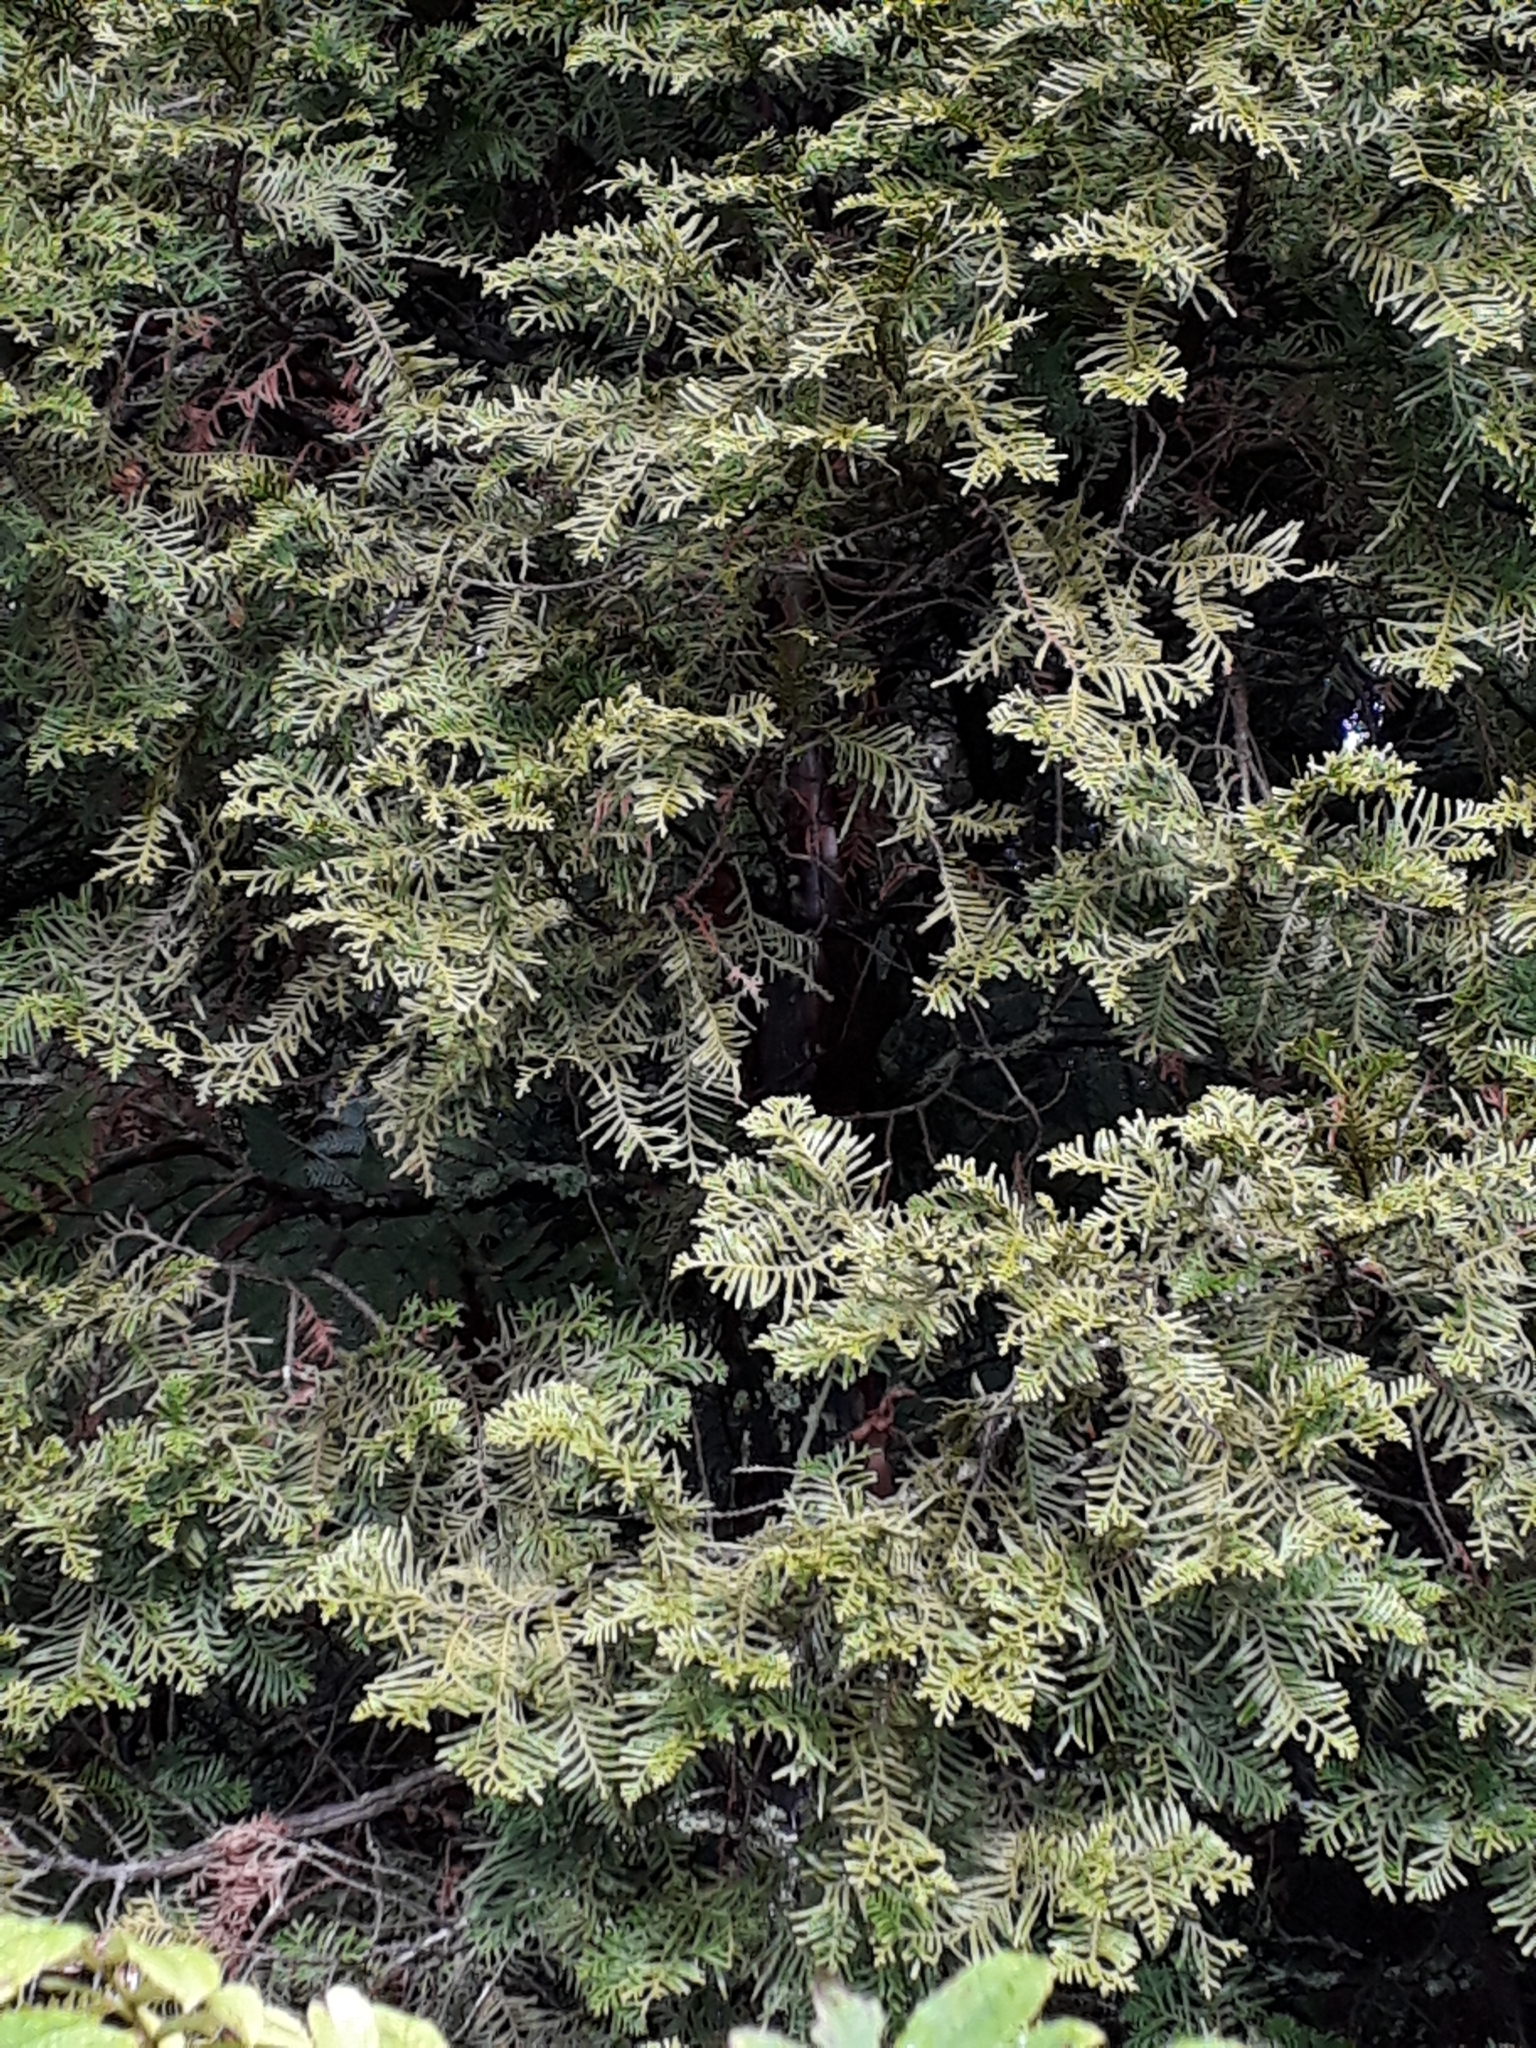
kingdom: Plantae
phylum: Tracheophyta
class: Pinopsida
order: Pinales
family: Cupressaceae
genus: Libocedrus
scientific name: Libocedrus plumosa
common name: New zealand cedar
